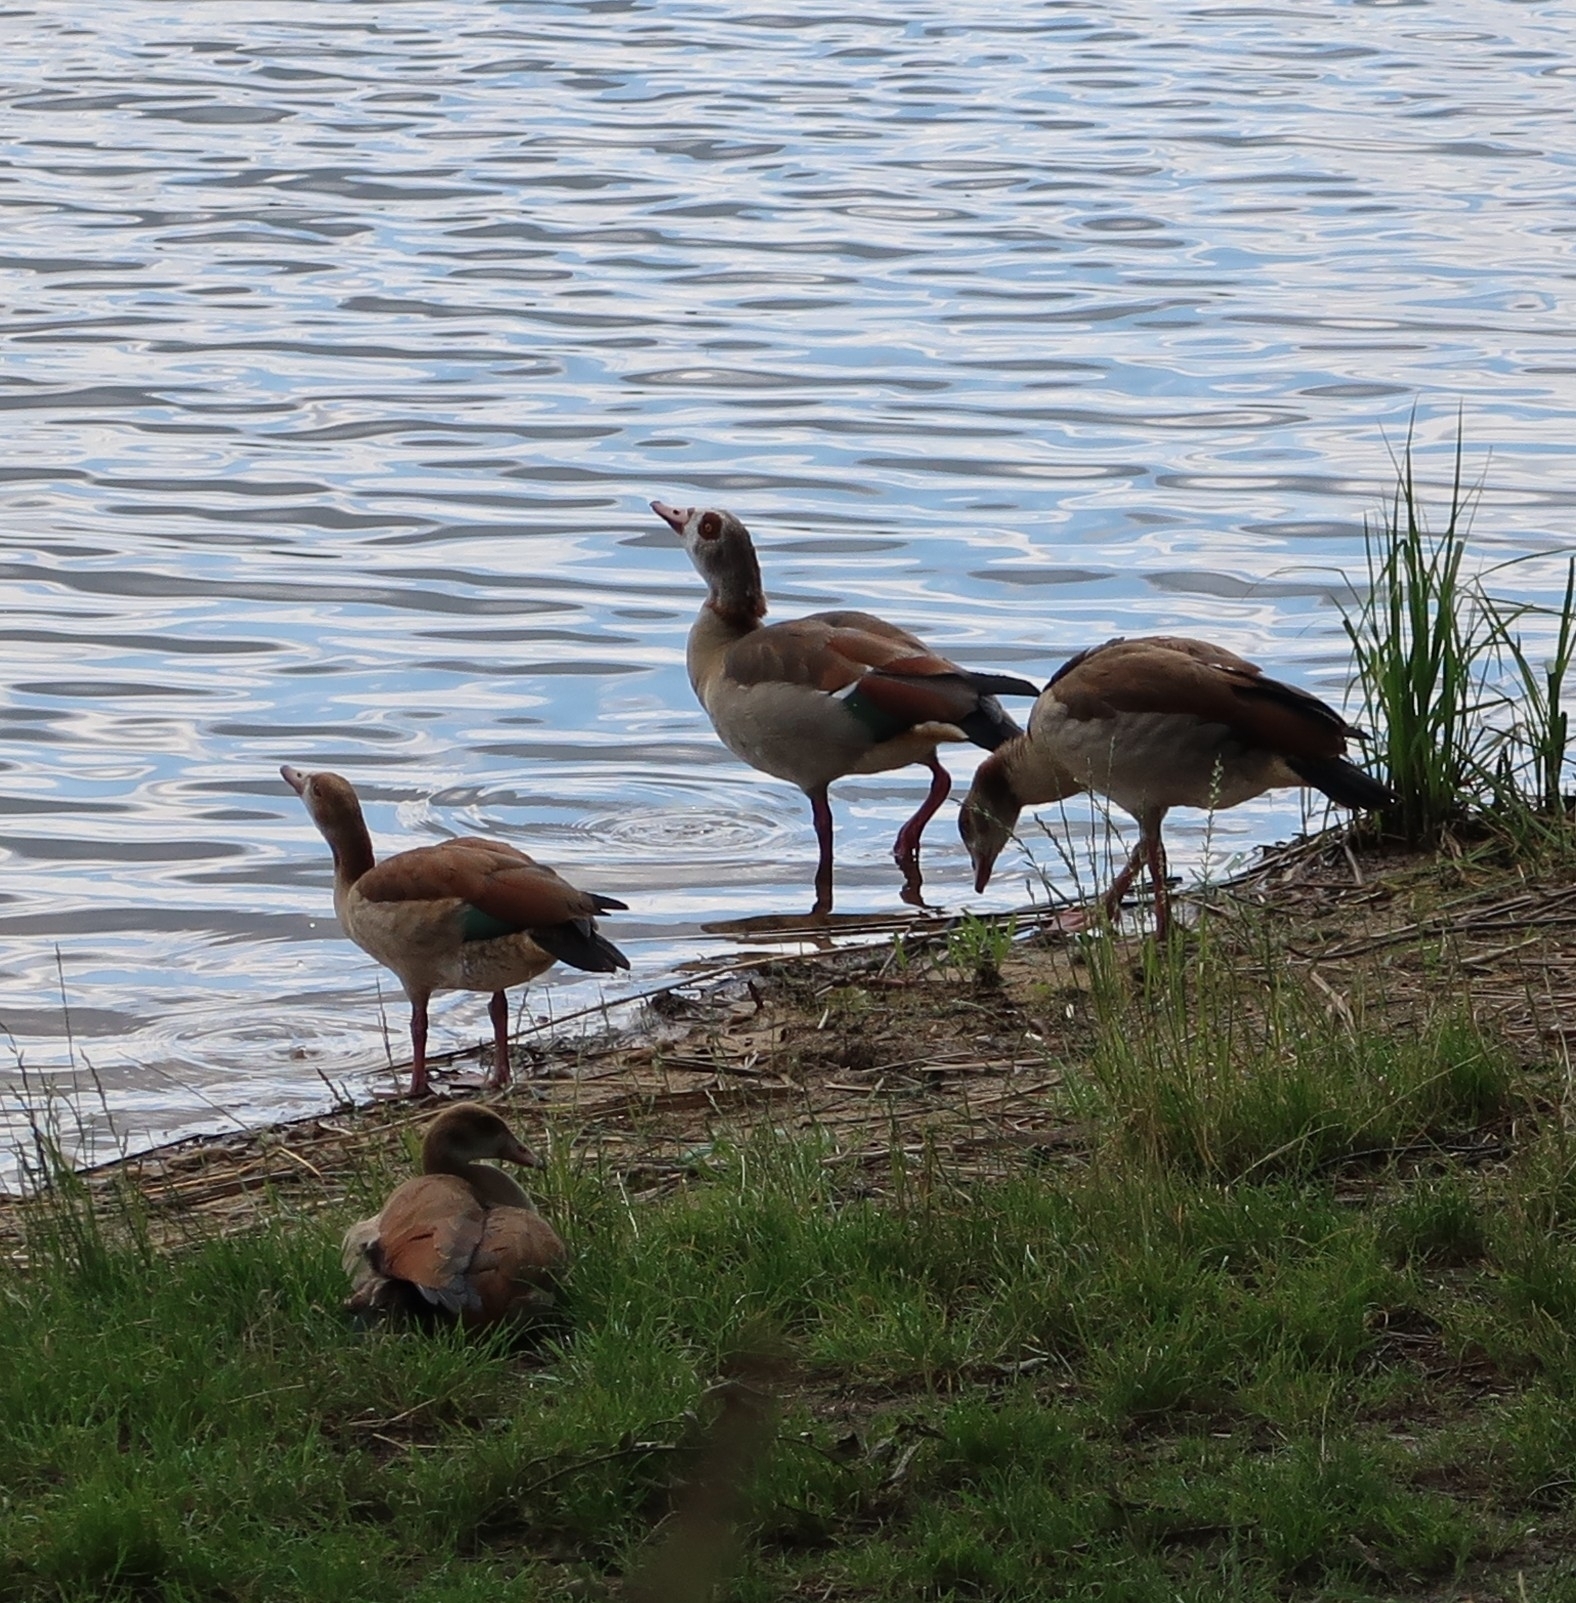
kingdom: Animalia
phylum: Chordata
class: Aves
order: Anseriformes
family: Anatidae
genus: Alopochen
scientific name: Alopochen aegyptiaca
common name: Egyptian goose
